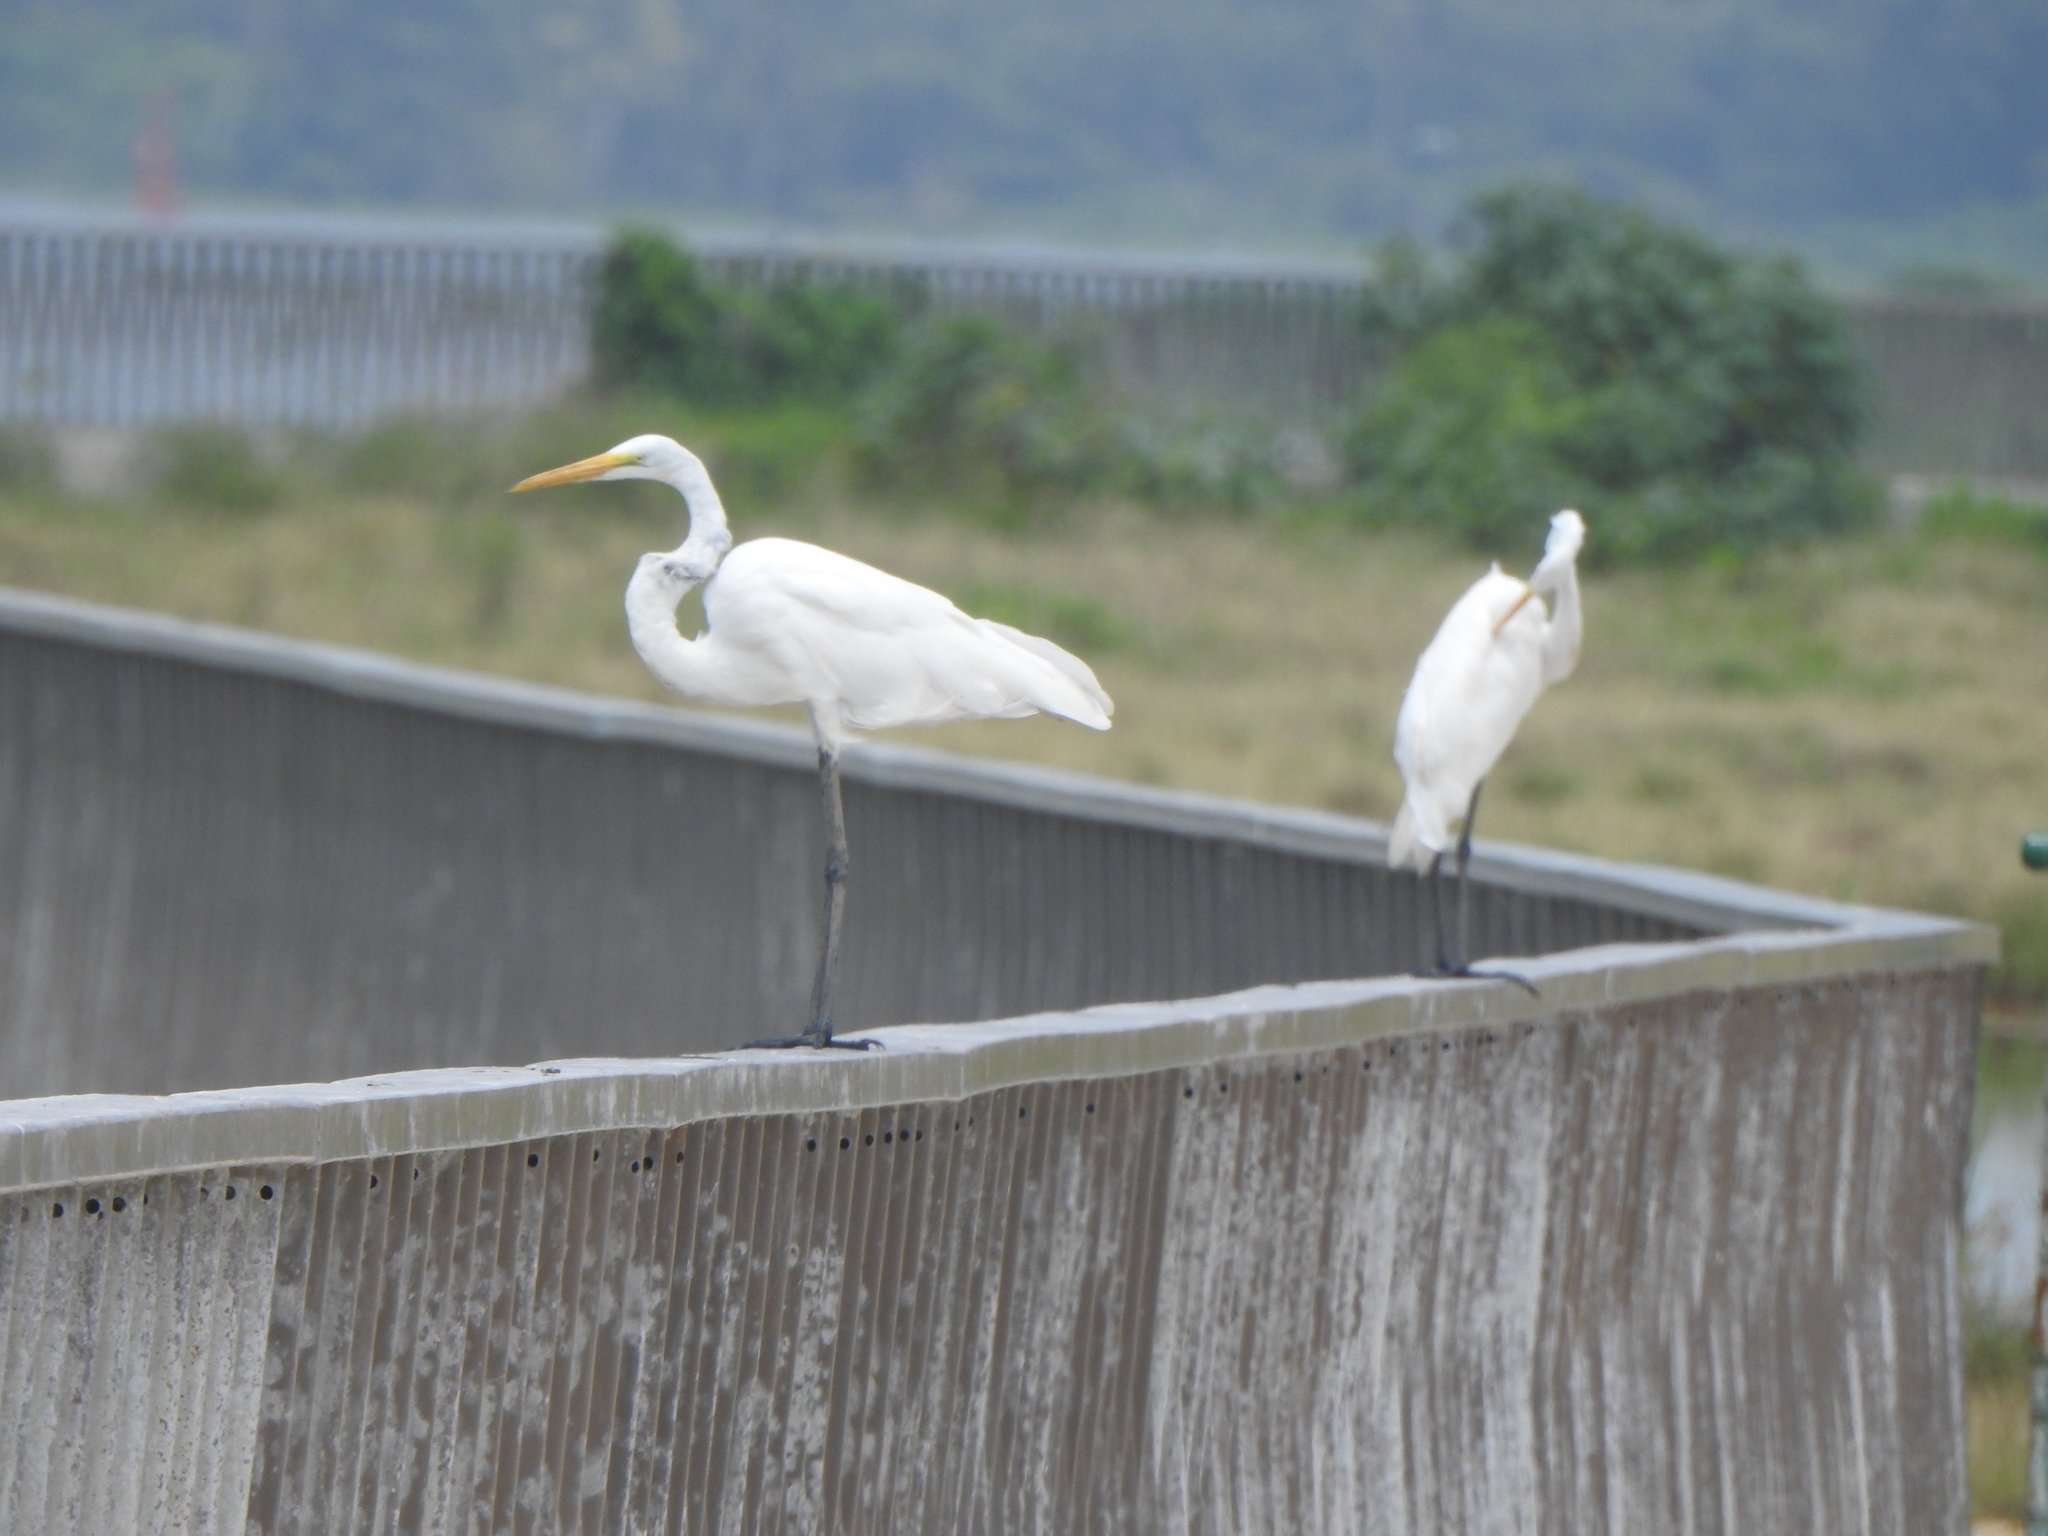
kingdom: Animalia
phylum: Chordata
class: Aves
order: Pelecaniformes
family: Ardeidae
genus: Ardea
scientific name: Ardea alba
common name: Great egret
